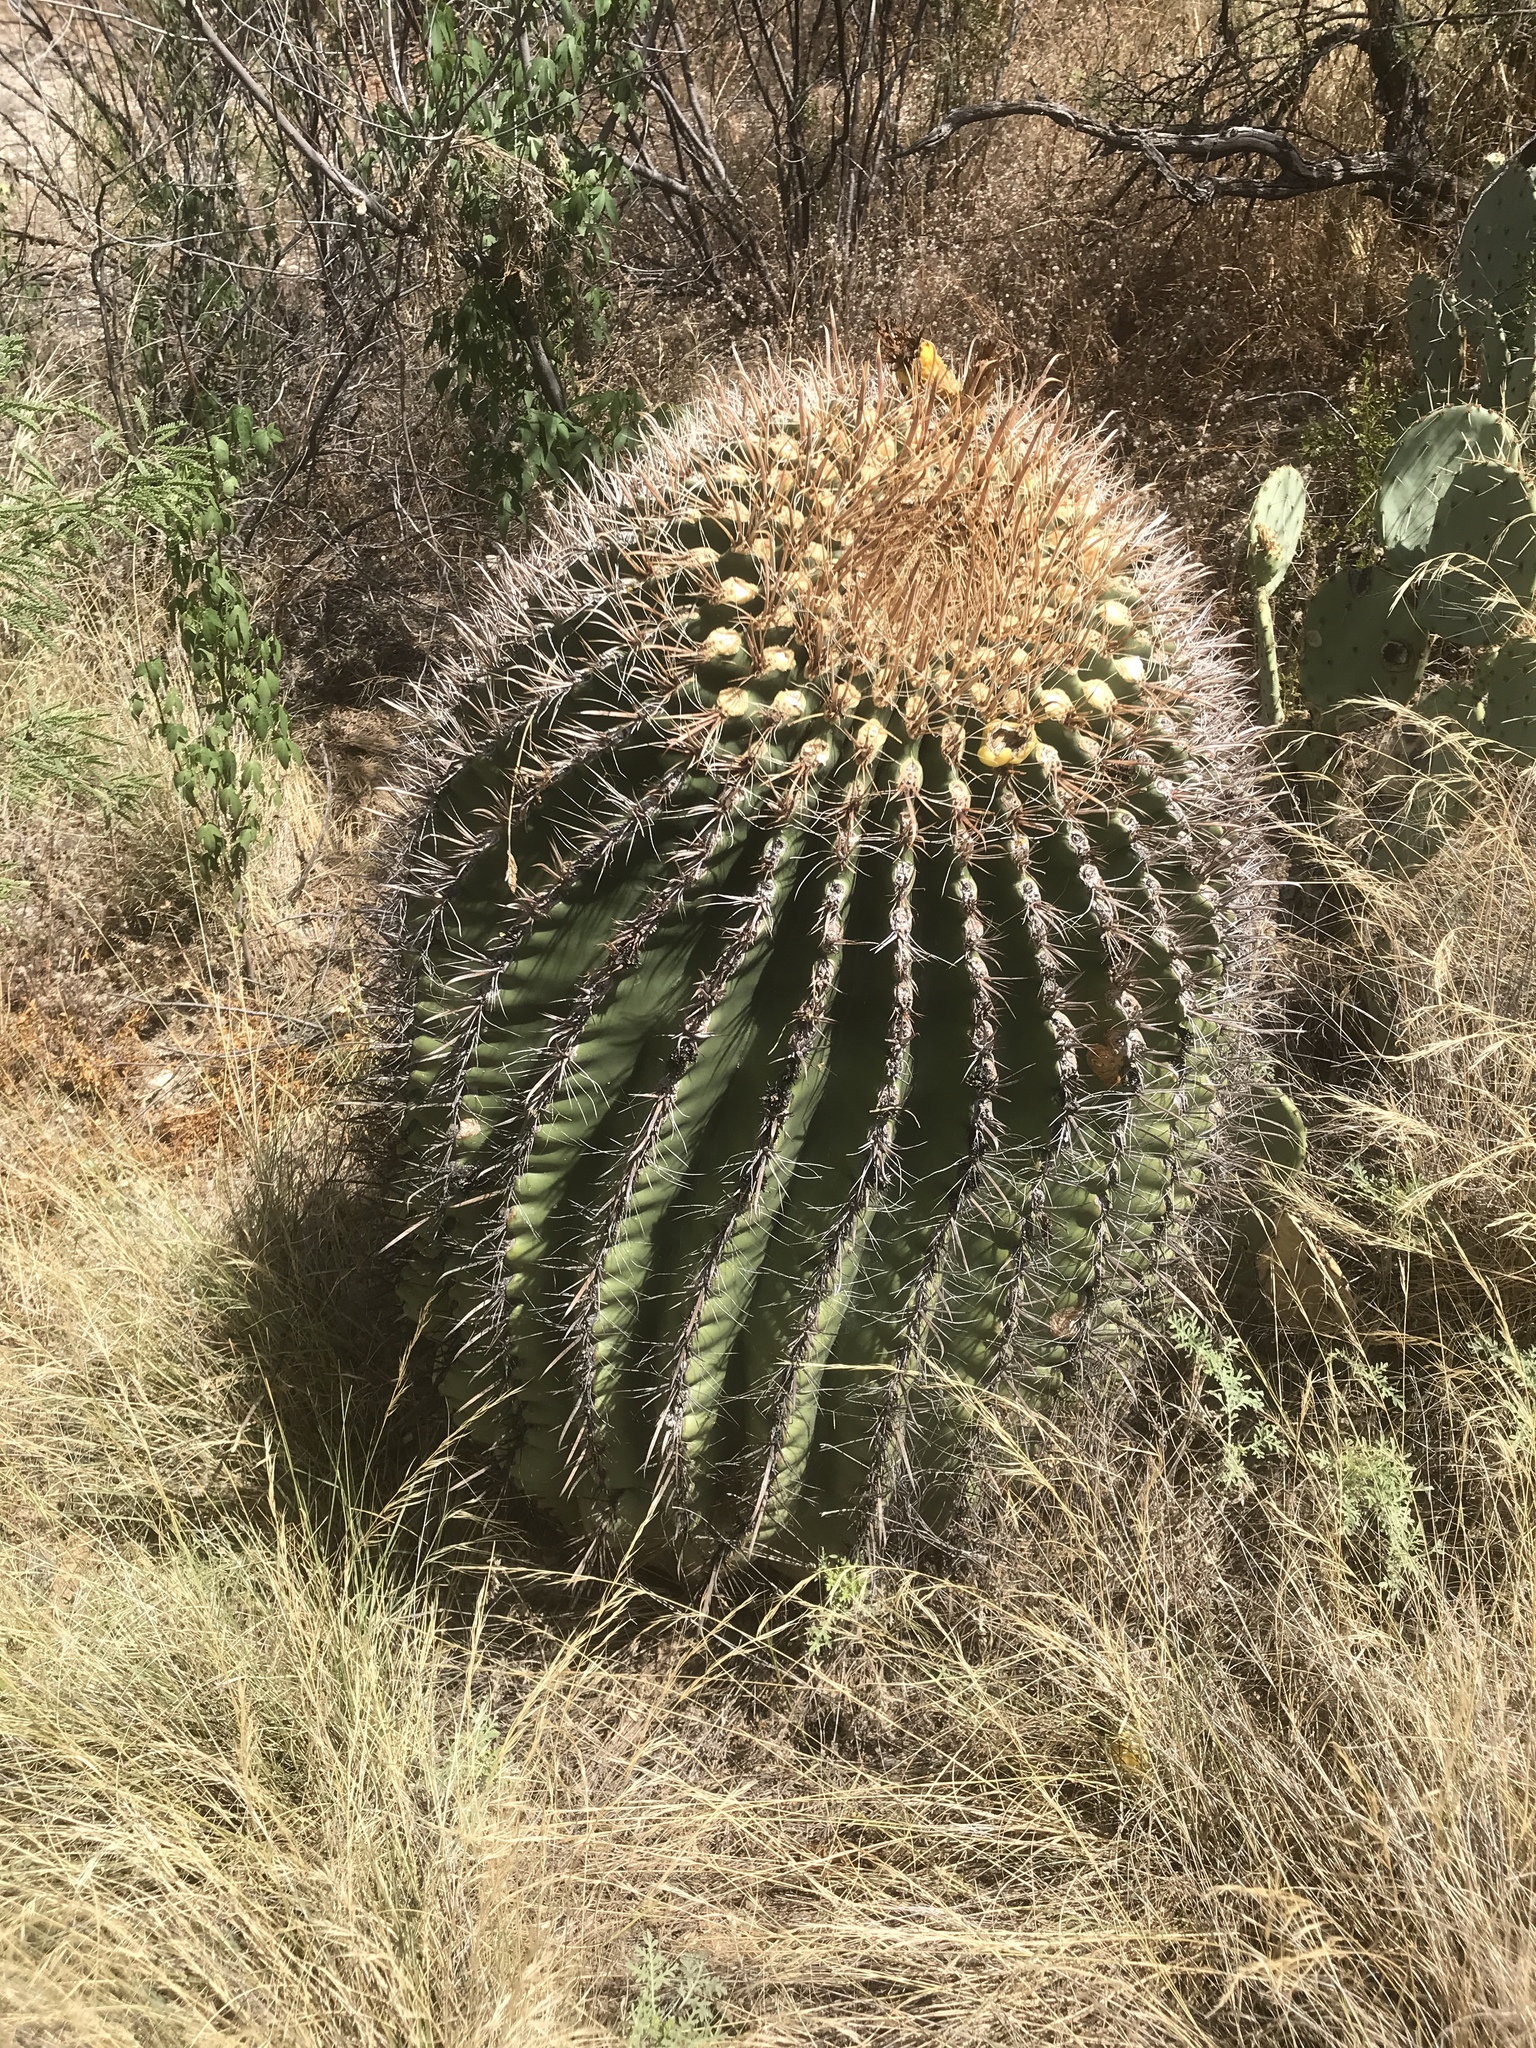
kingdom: Plantae
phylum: Tracheophyta
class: Magnoliopsida
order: Caryophyllales
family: Cactaceae
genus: Ferocactus
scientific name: Ferocactus wislizeni
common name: Candy barrel cactus
